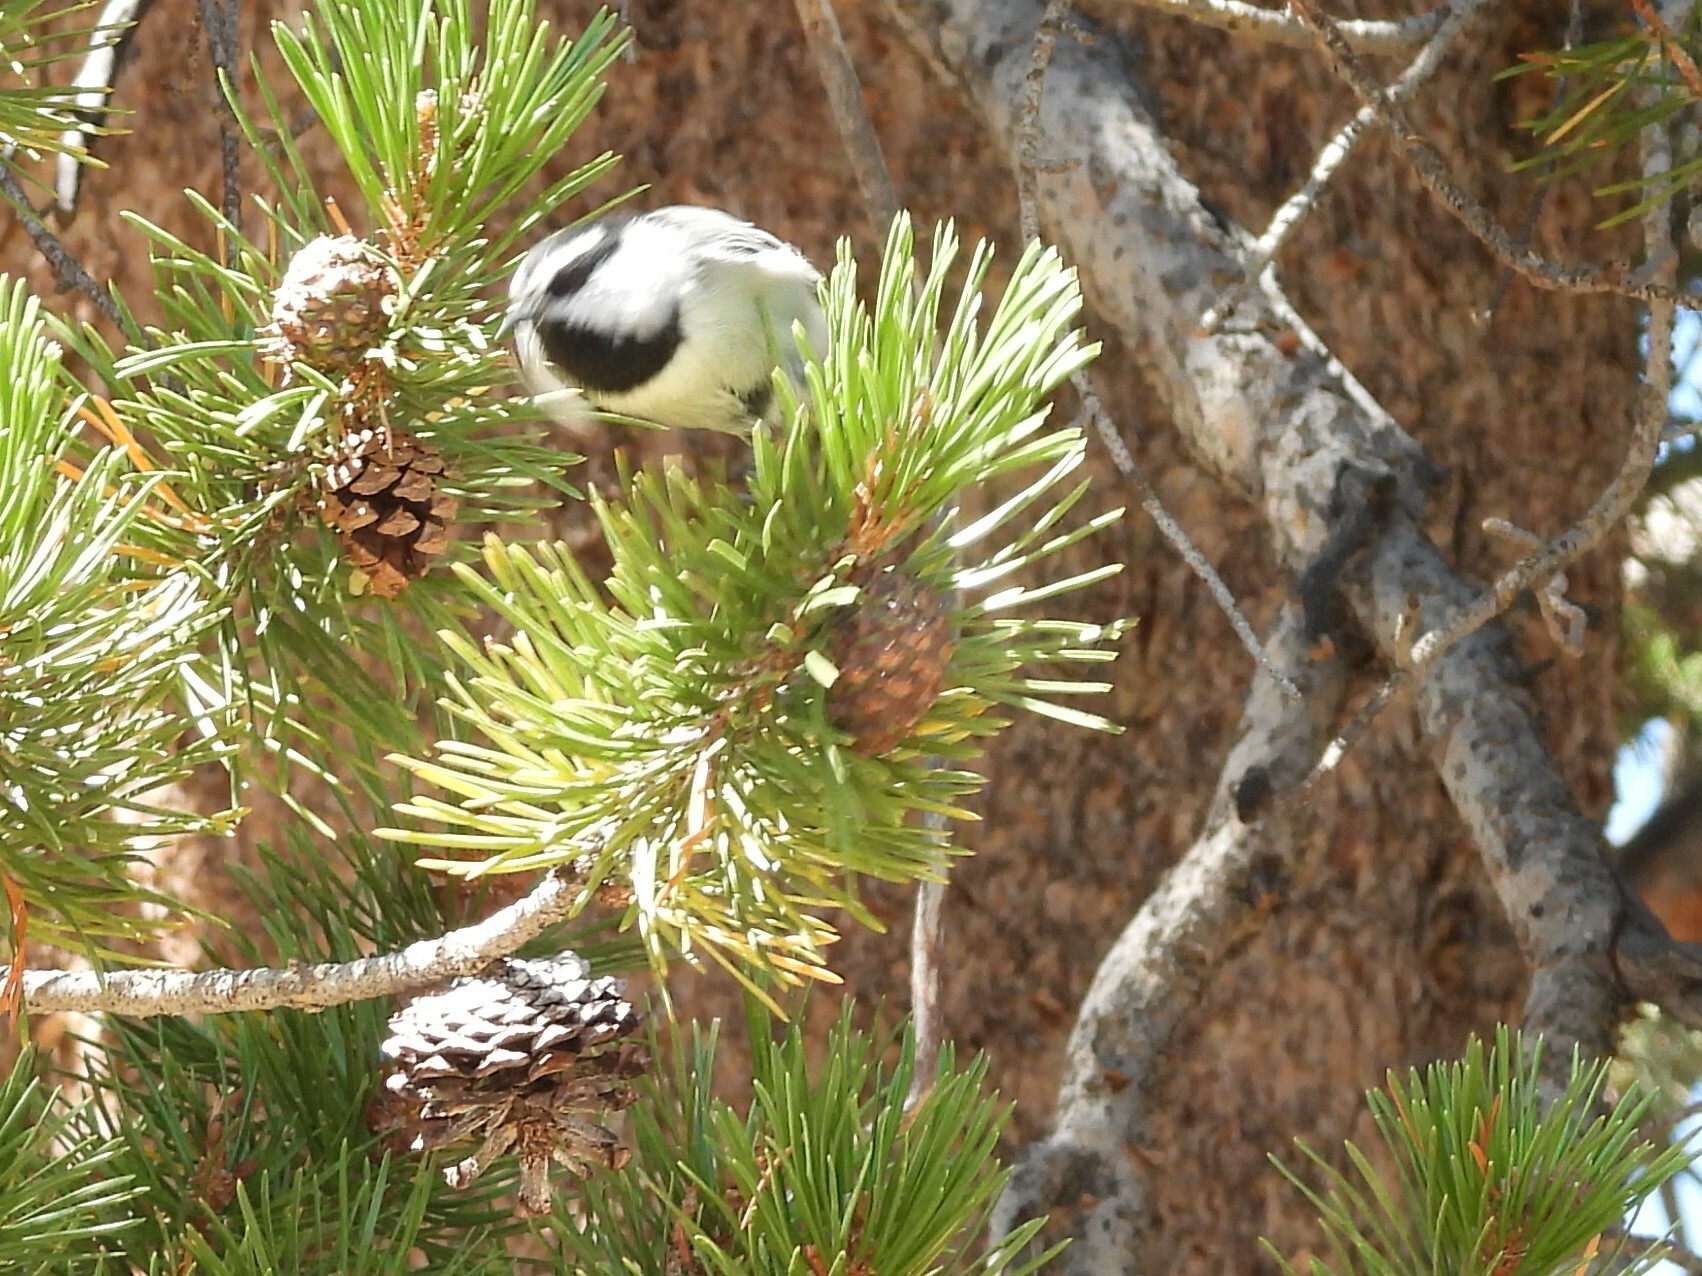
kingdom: Animalia
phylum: Chordata
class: Aves
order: Passeriformes
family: Paridae
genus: Poecile
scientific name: Poecile gambeli
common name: Mountain chickadee
